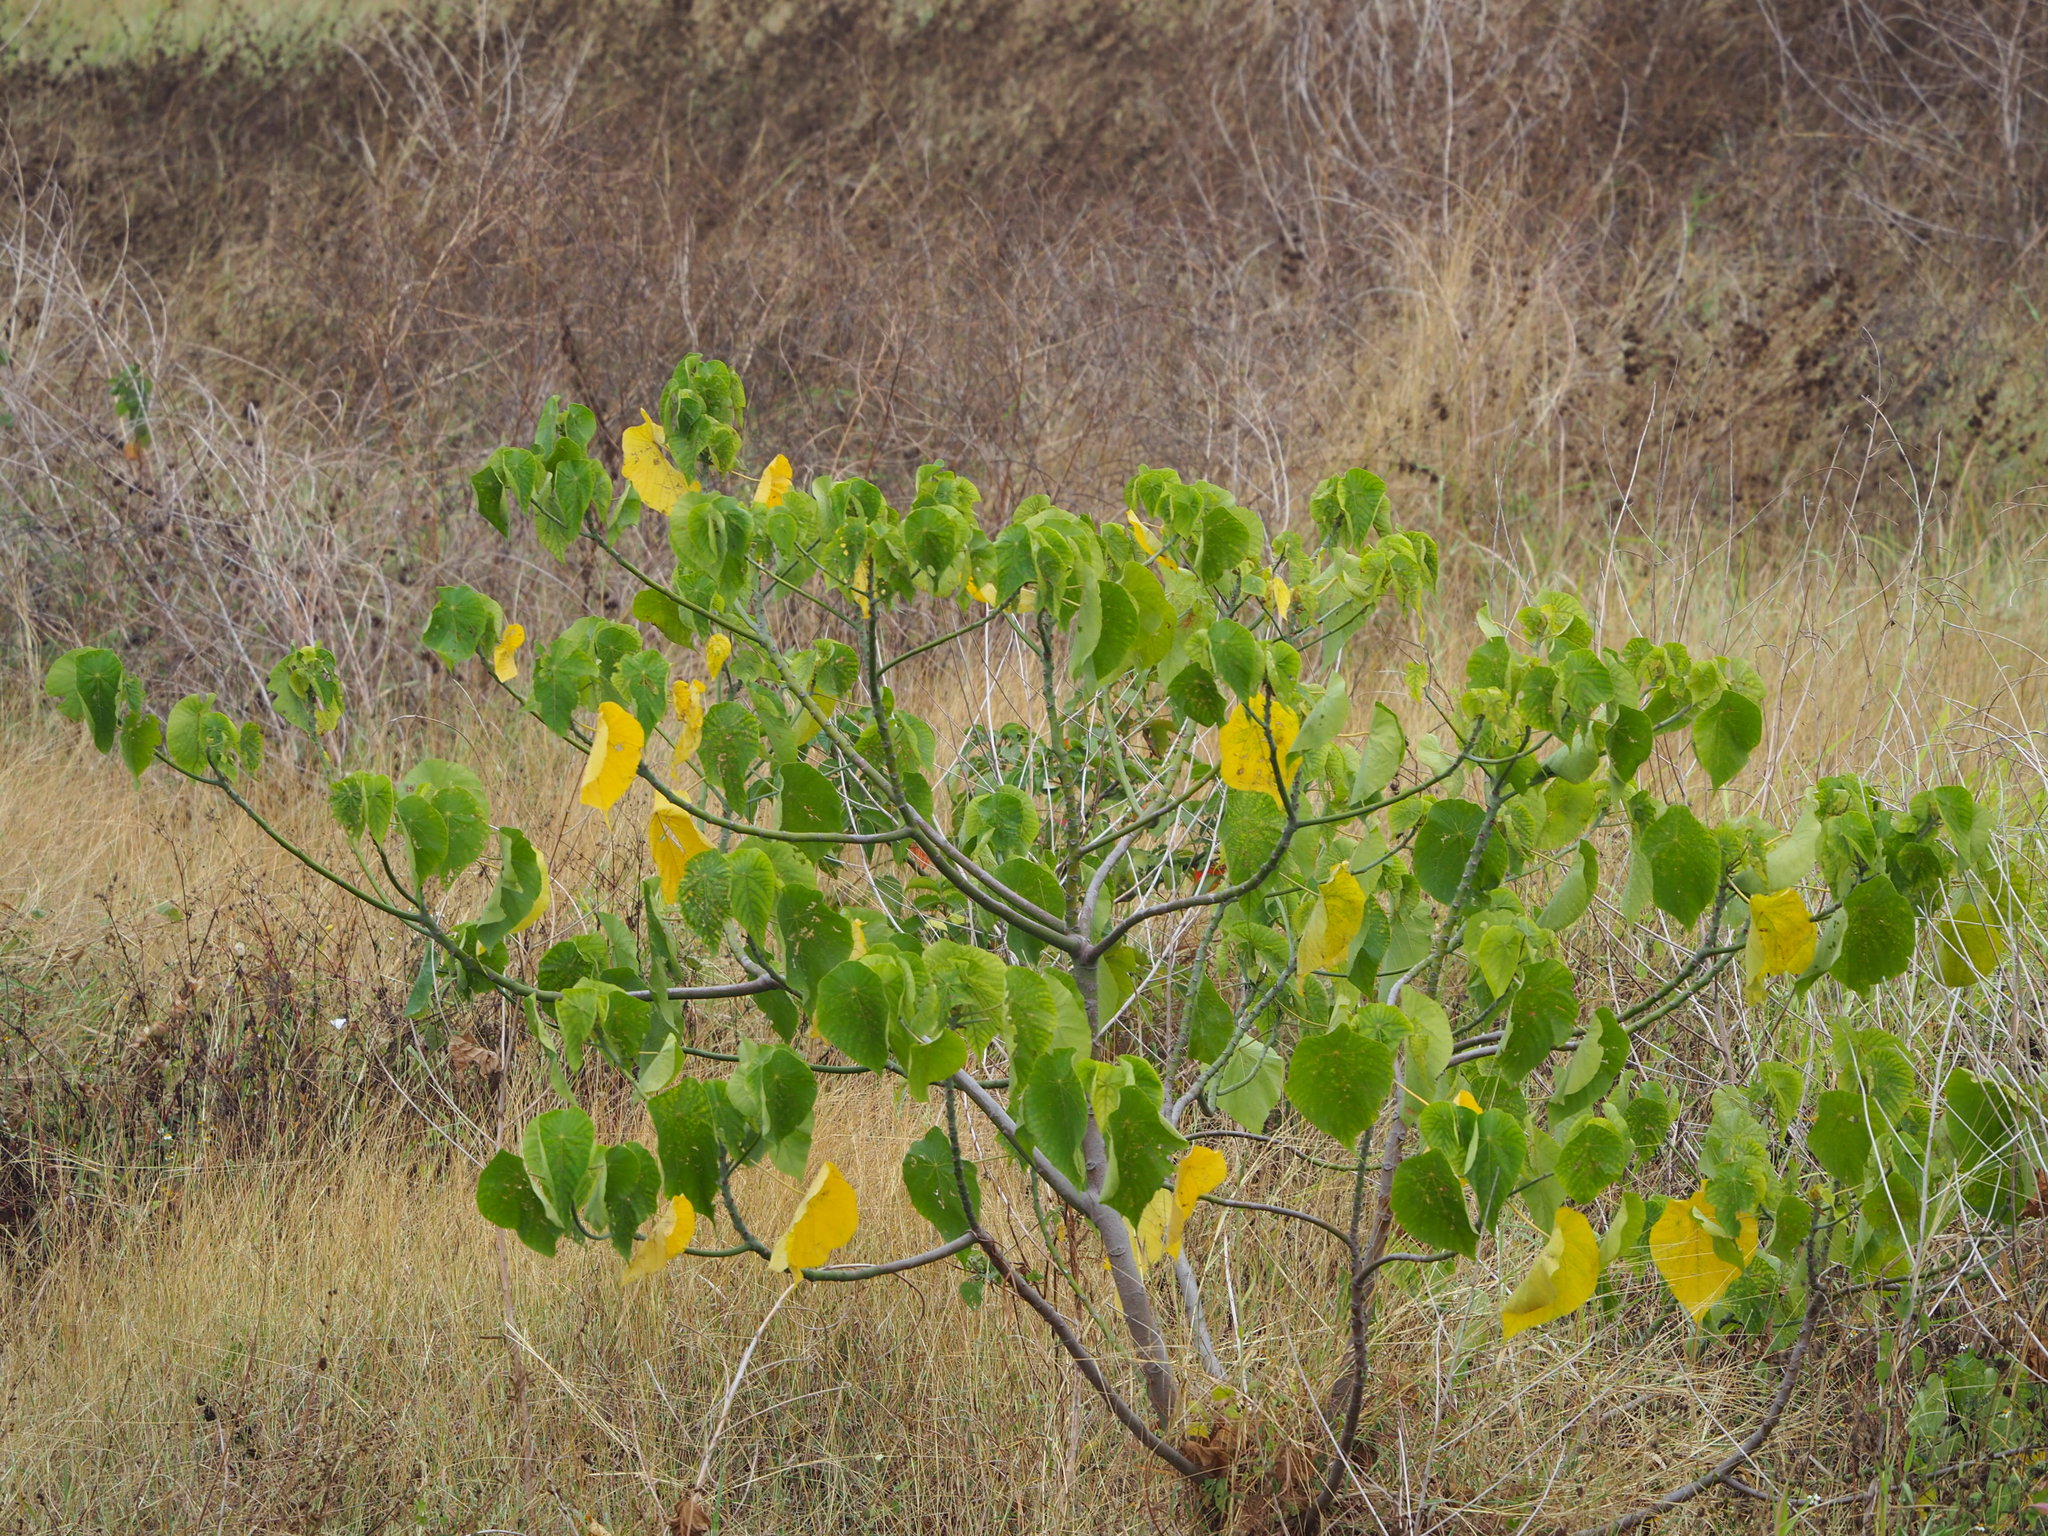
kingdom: Plantae
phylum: Tracheophyta
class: Magnoliopsida
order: Malpighiales
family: Euphorbiaceae
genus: Macaranga
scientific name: Macaranga tanarius
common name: Parasol leaf tree
